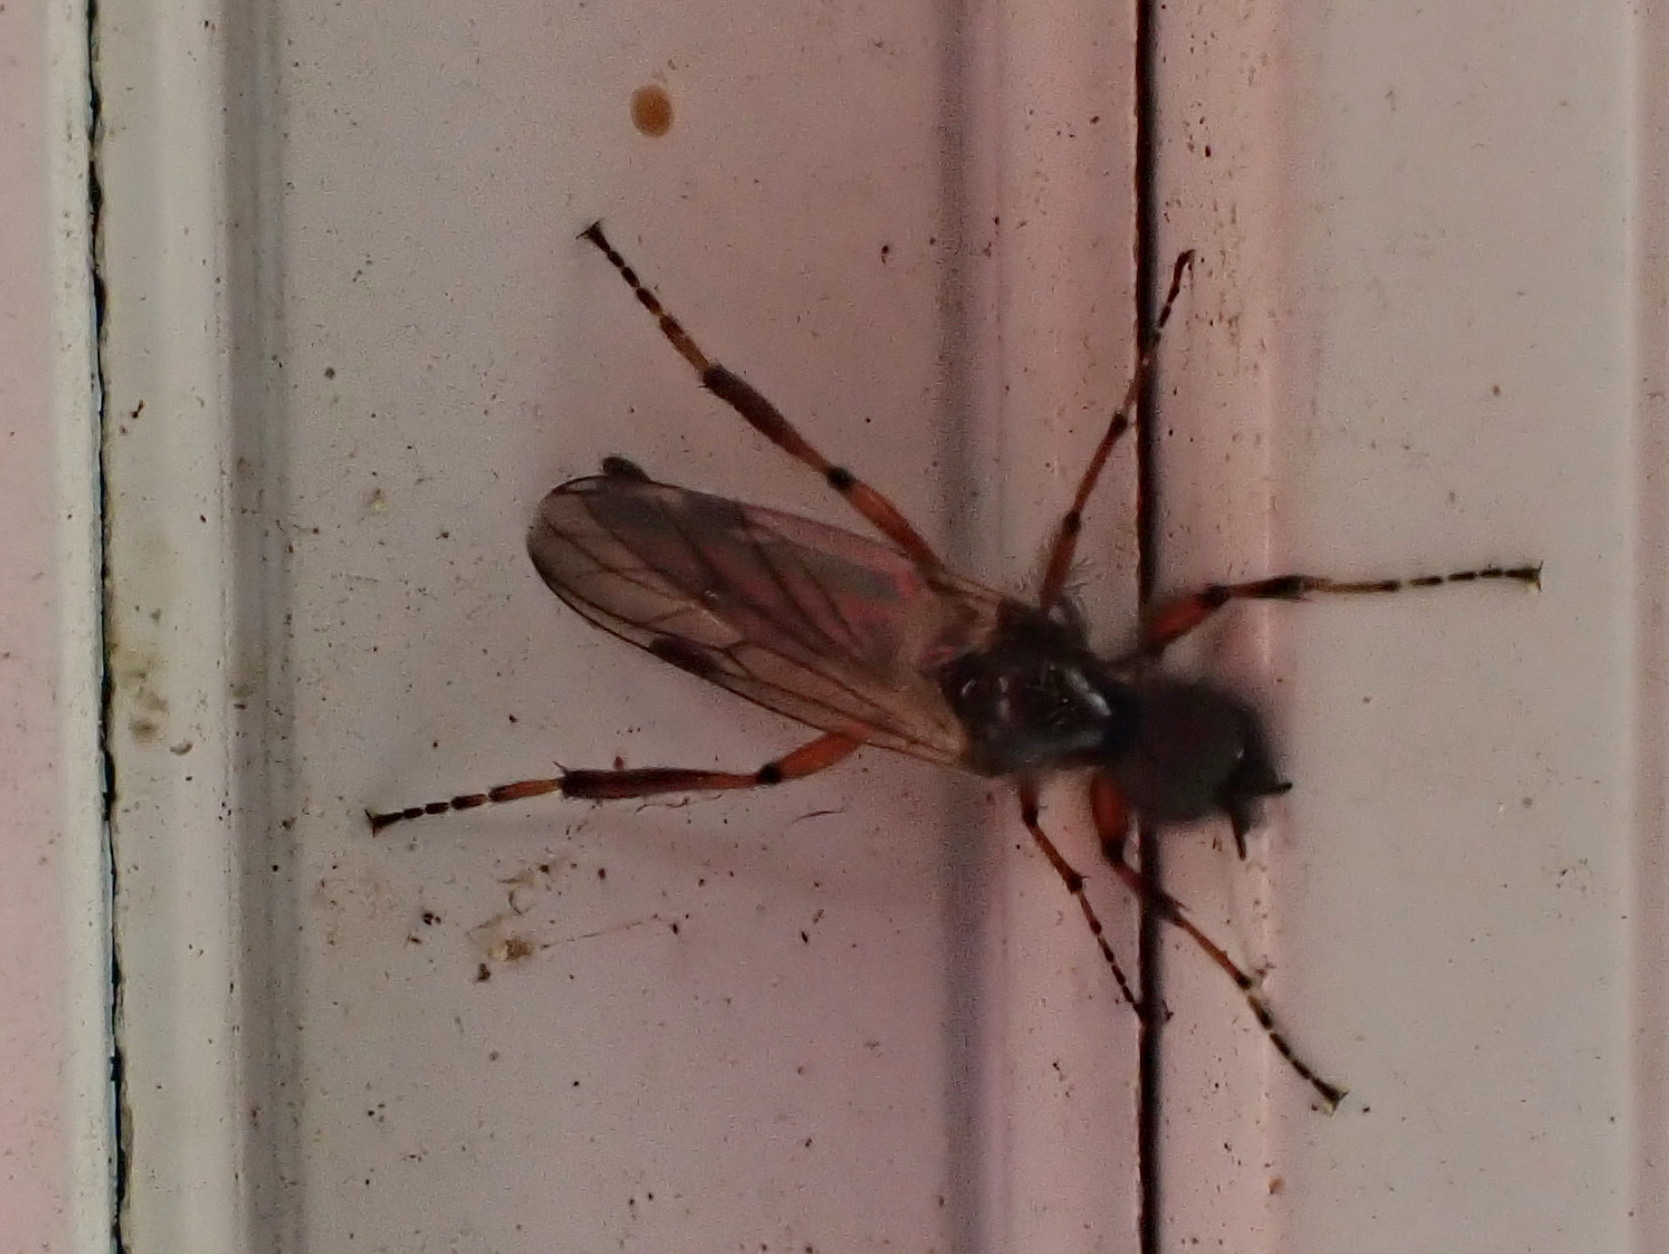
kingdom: Animalia
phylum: Arthropoda
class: Insecta
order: Diptera
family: Bibionidae
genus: Bibio
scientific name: Bibio xanthopus
